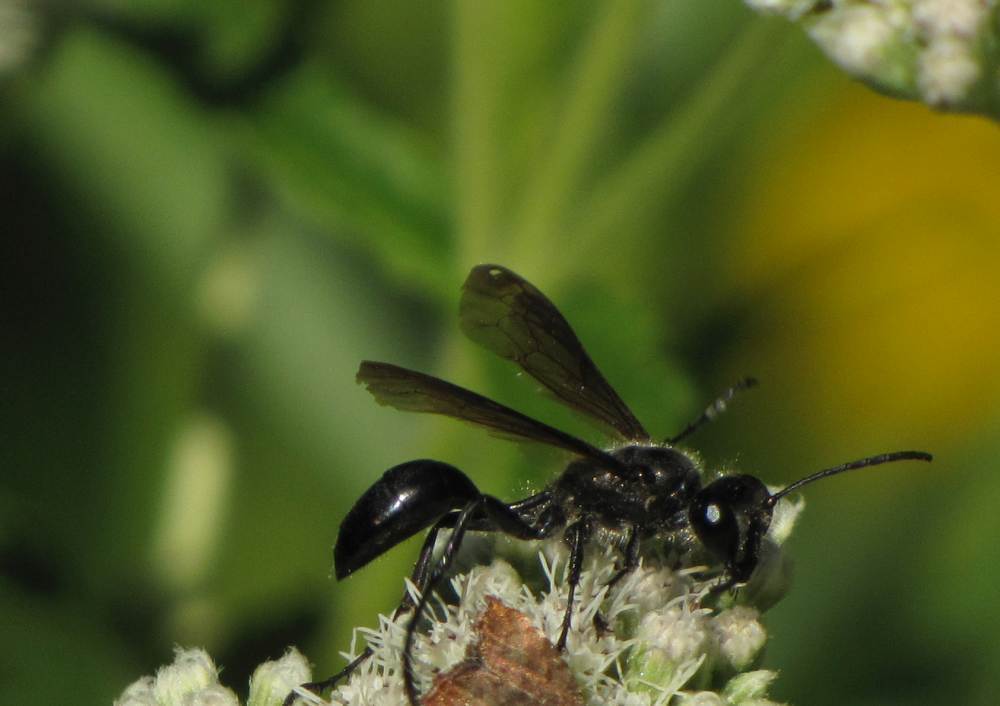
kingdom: Animalia
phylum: Arthropoda
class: Insecta
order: Hymenoptera
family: Sphecidae
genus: Isodontia
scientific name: Isodontia mexicana
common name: Mud dauber
